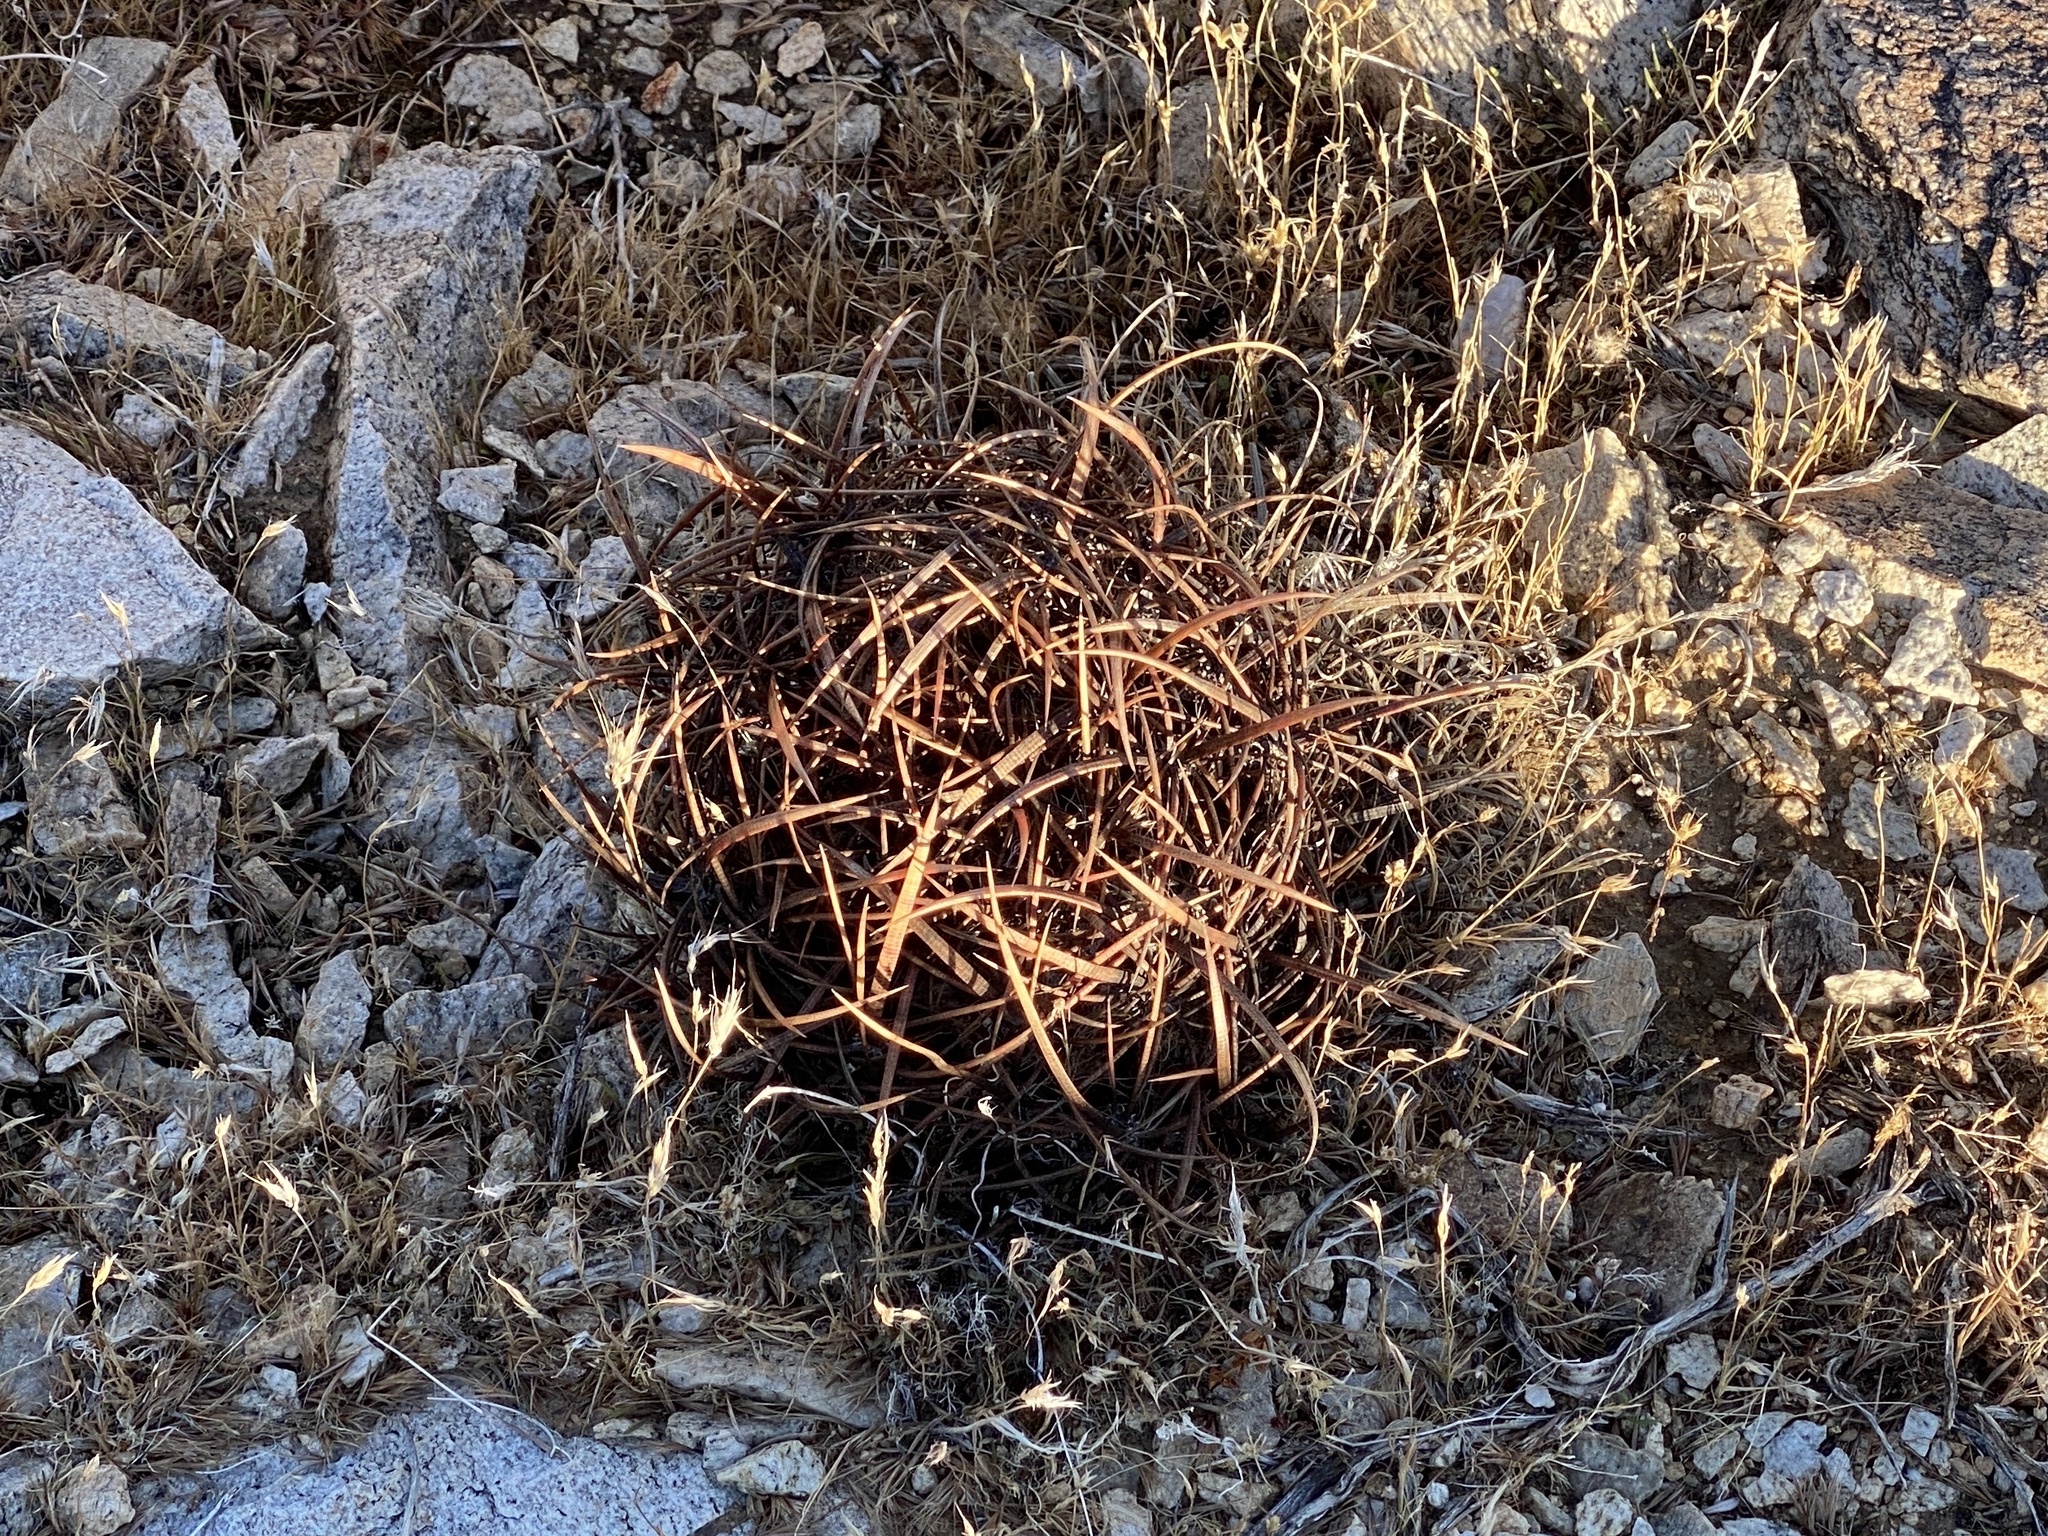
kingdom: Plantae
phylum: Tracheophyta
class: Magnoliopsida
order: Caryophyllales
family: Cactaceae
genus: Ferocactus
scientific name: Ferocactus cylindraceus
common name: California barrel cactus
